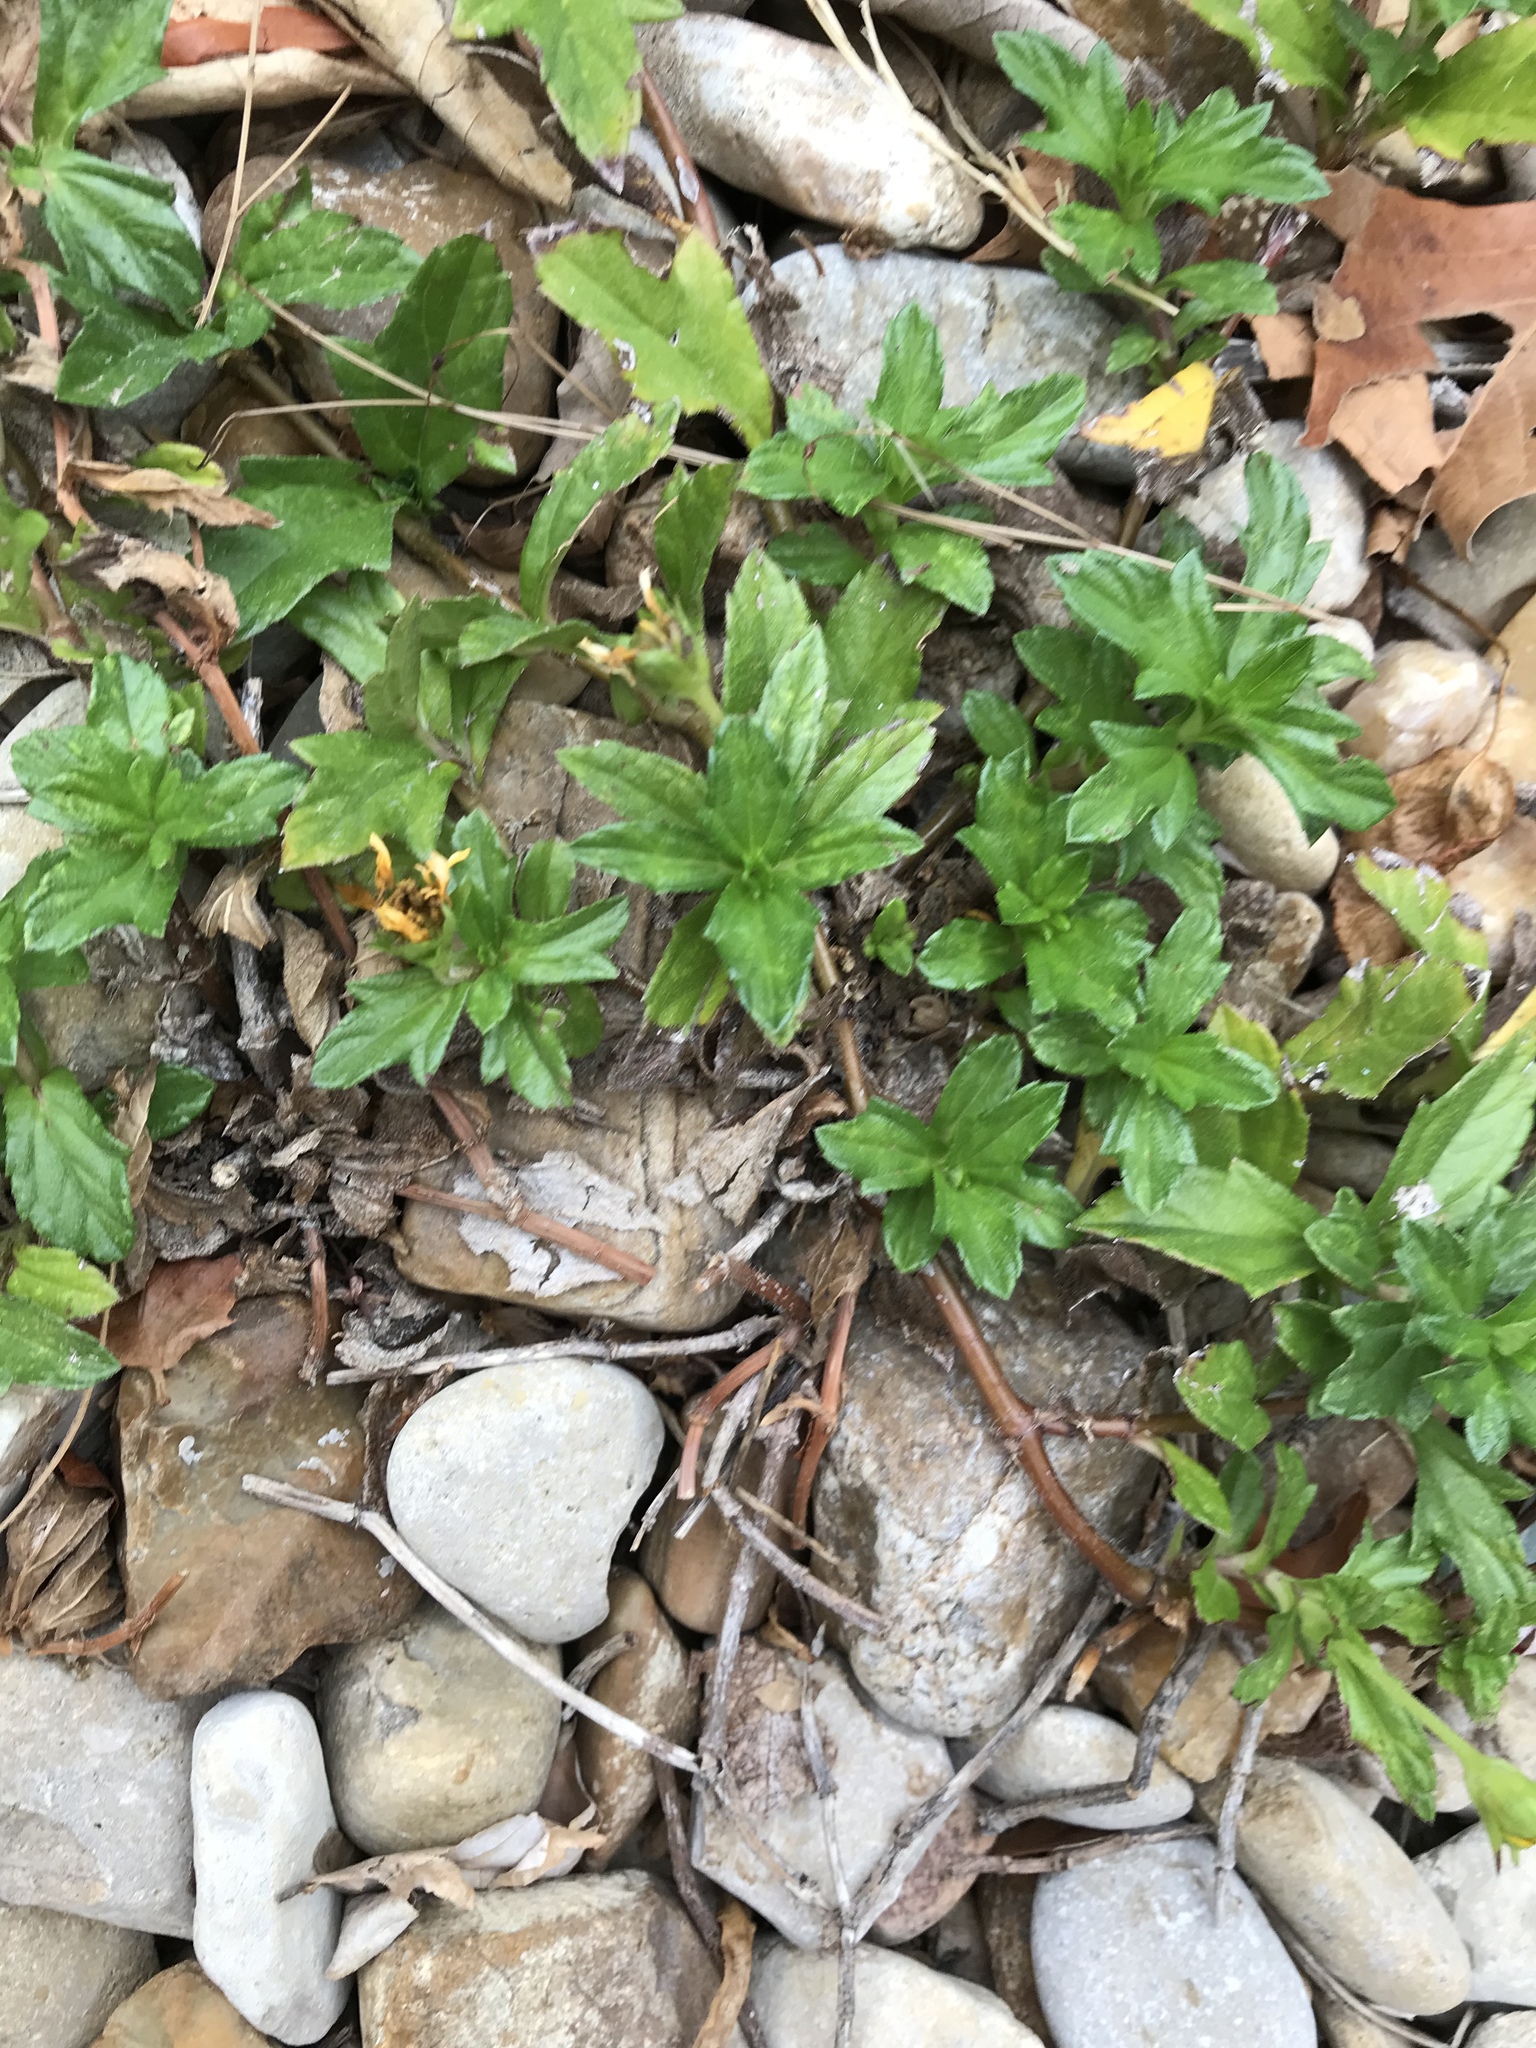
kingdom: Plantae
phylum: Tracheophyta
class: Magnoliopsida
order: Asterales
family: Asteraceae
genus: Sphagneticola
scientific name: Sphagneticola trilobata
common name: Bay biscayne creeping-oxeye
